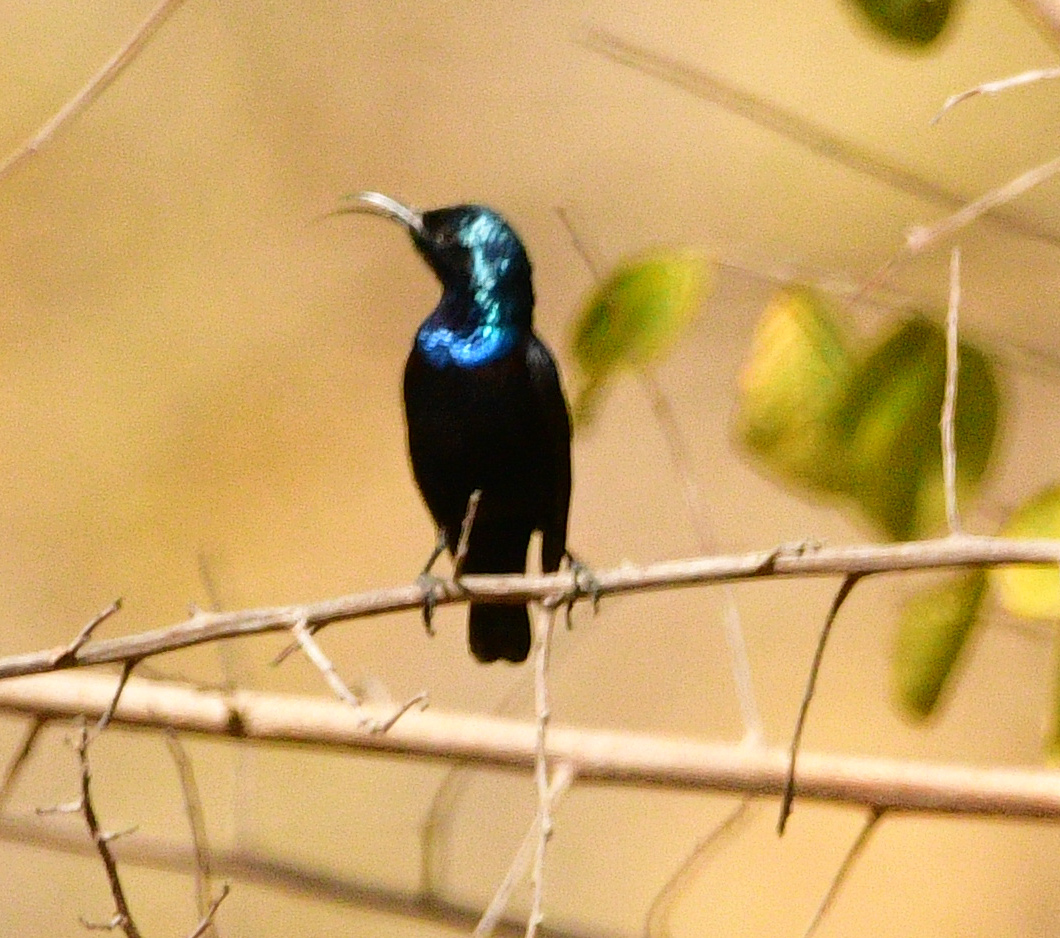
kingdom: Animalia
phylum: Chordata
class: Aves
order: Passeriformes
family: Nectariniidae
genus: Cinnyris
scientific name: Cinnyris asiaticus
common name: Purple sunbird
